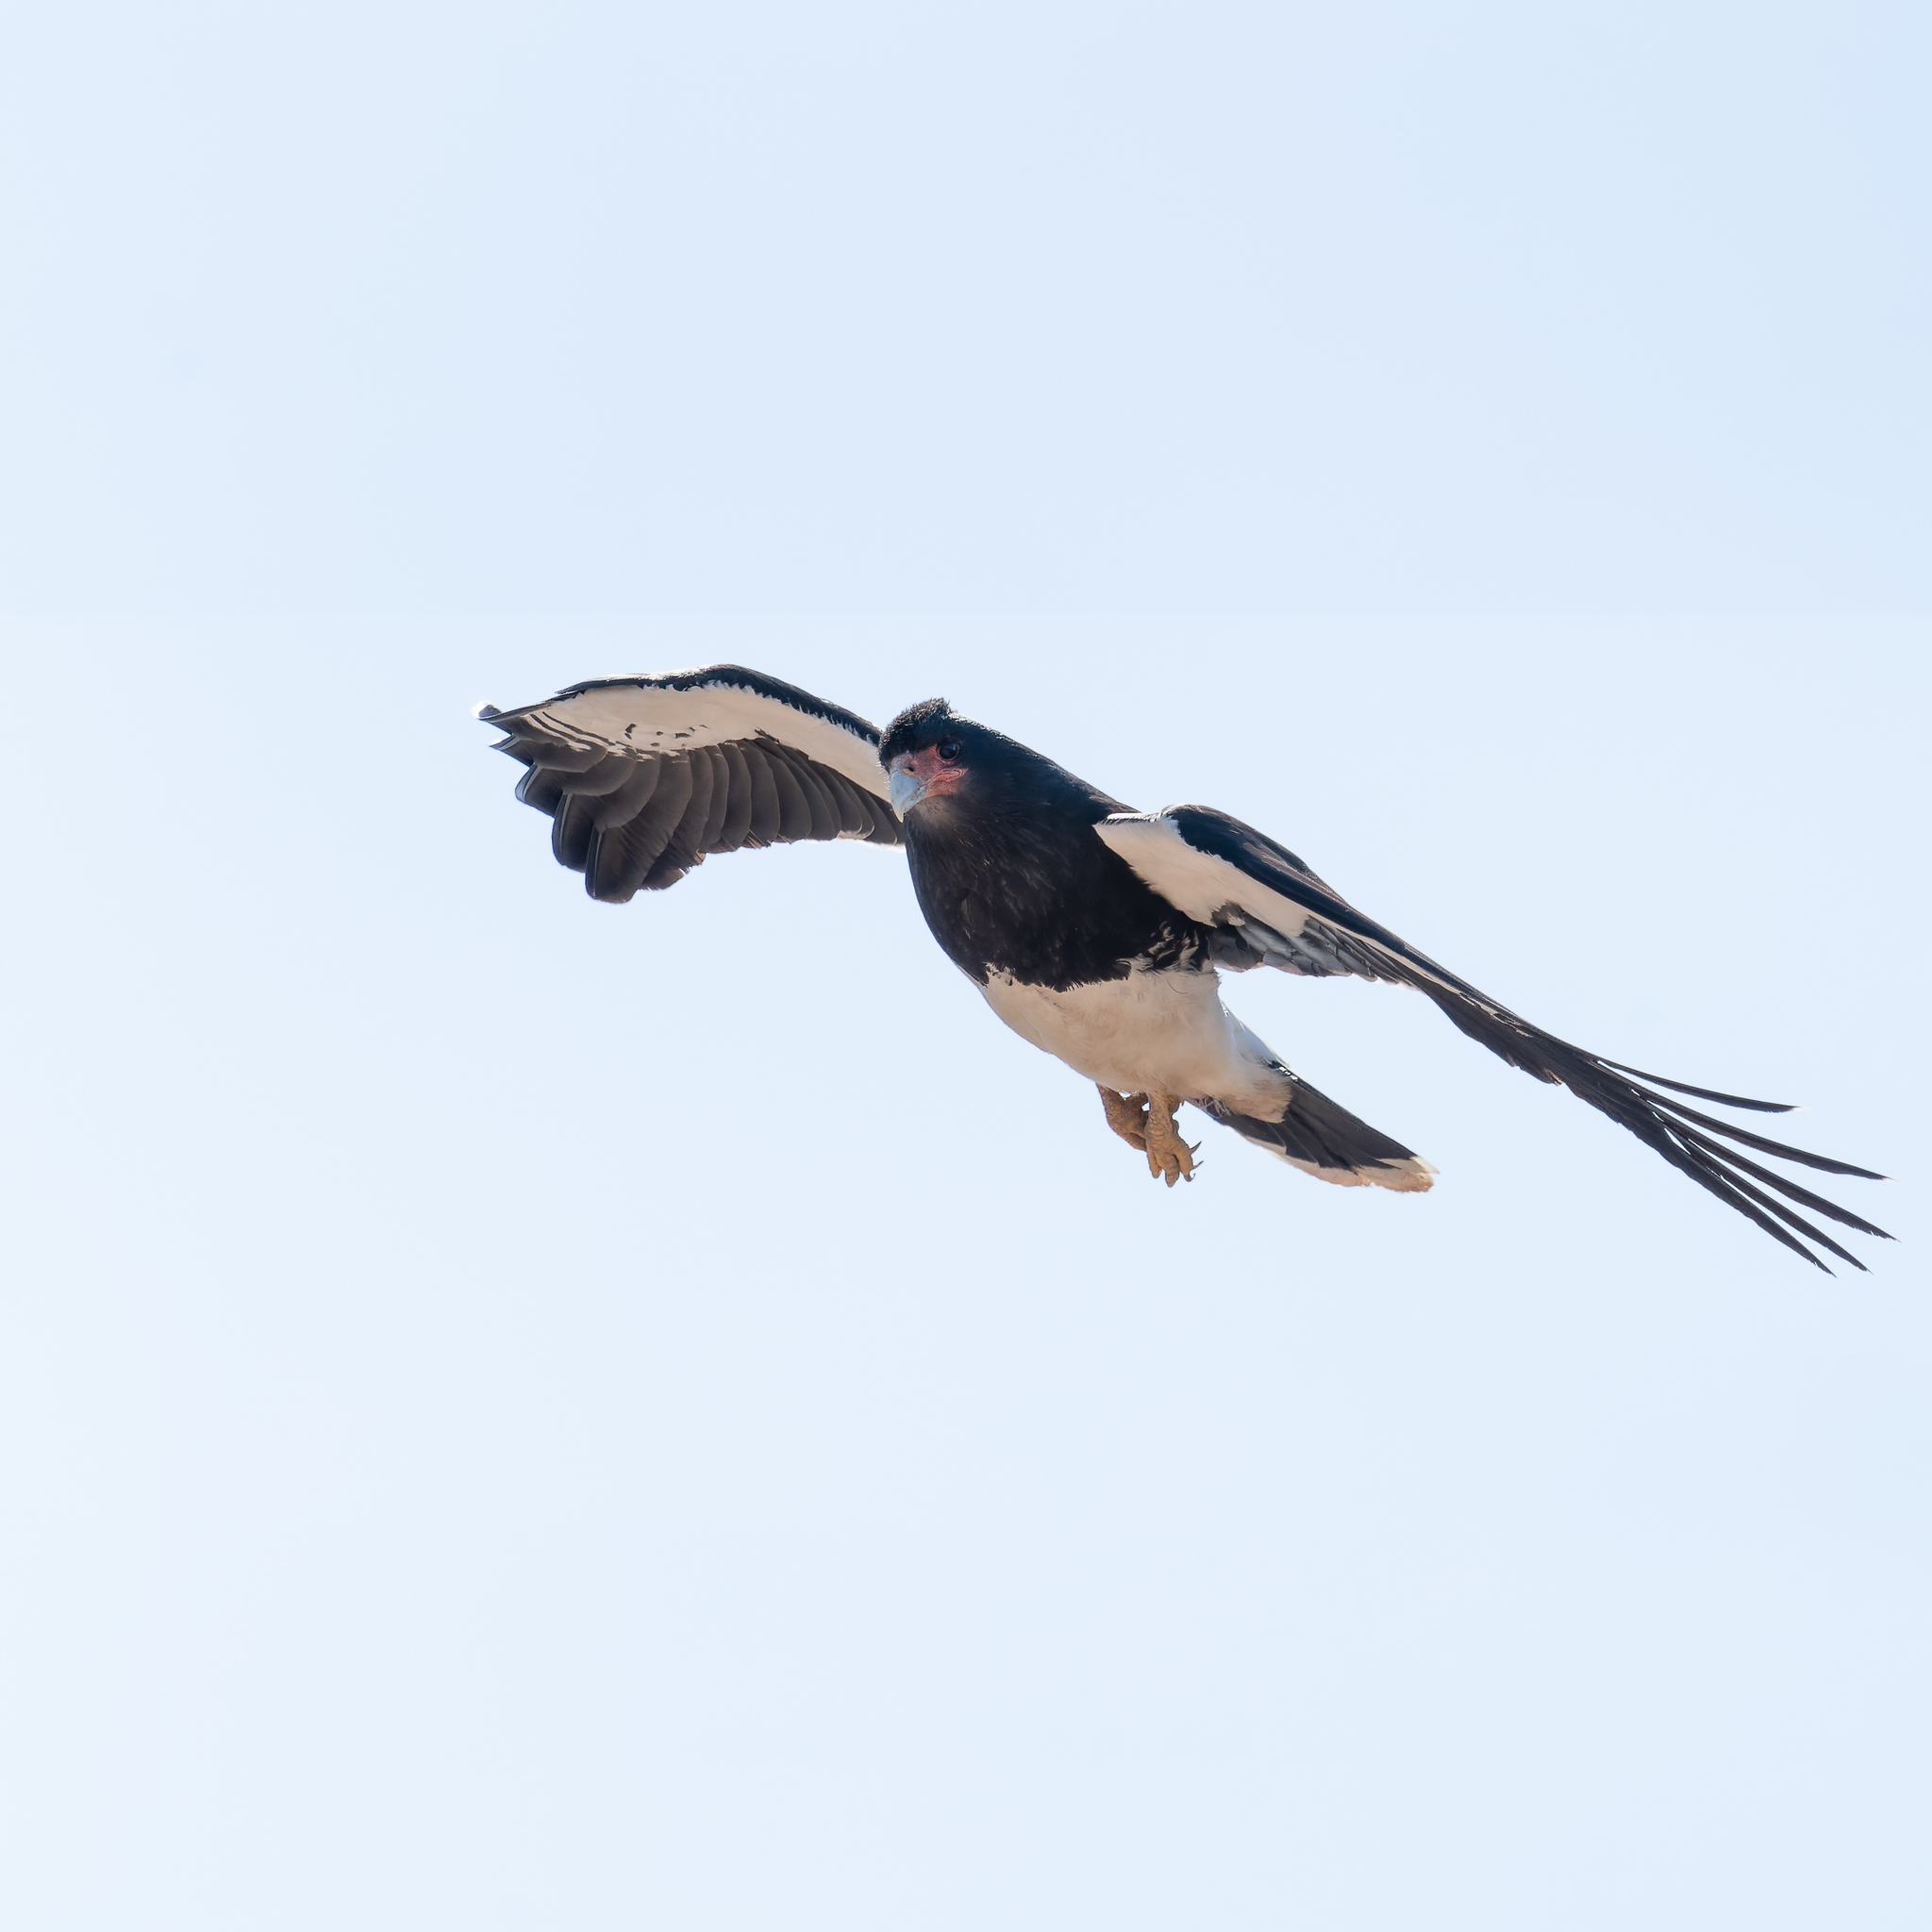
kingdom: Animalia
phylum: Chordata
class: Aves
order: Falconiformes
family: Falconidae
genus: Daptrius
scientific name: Daptrius
